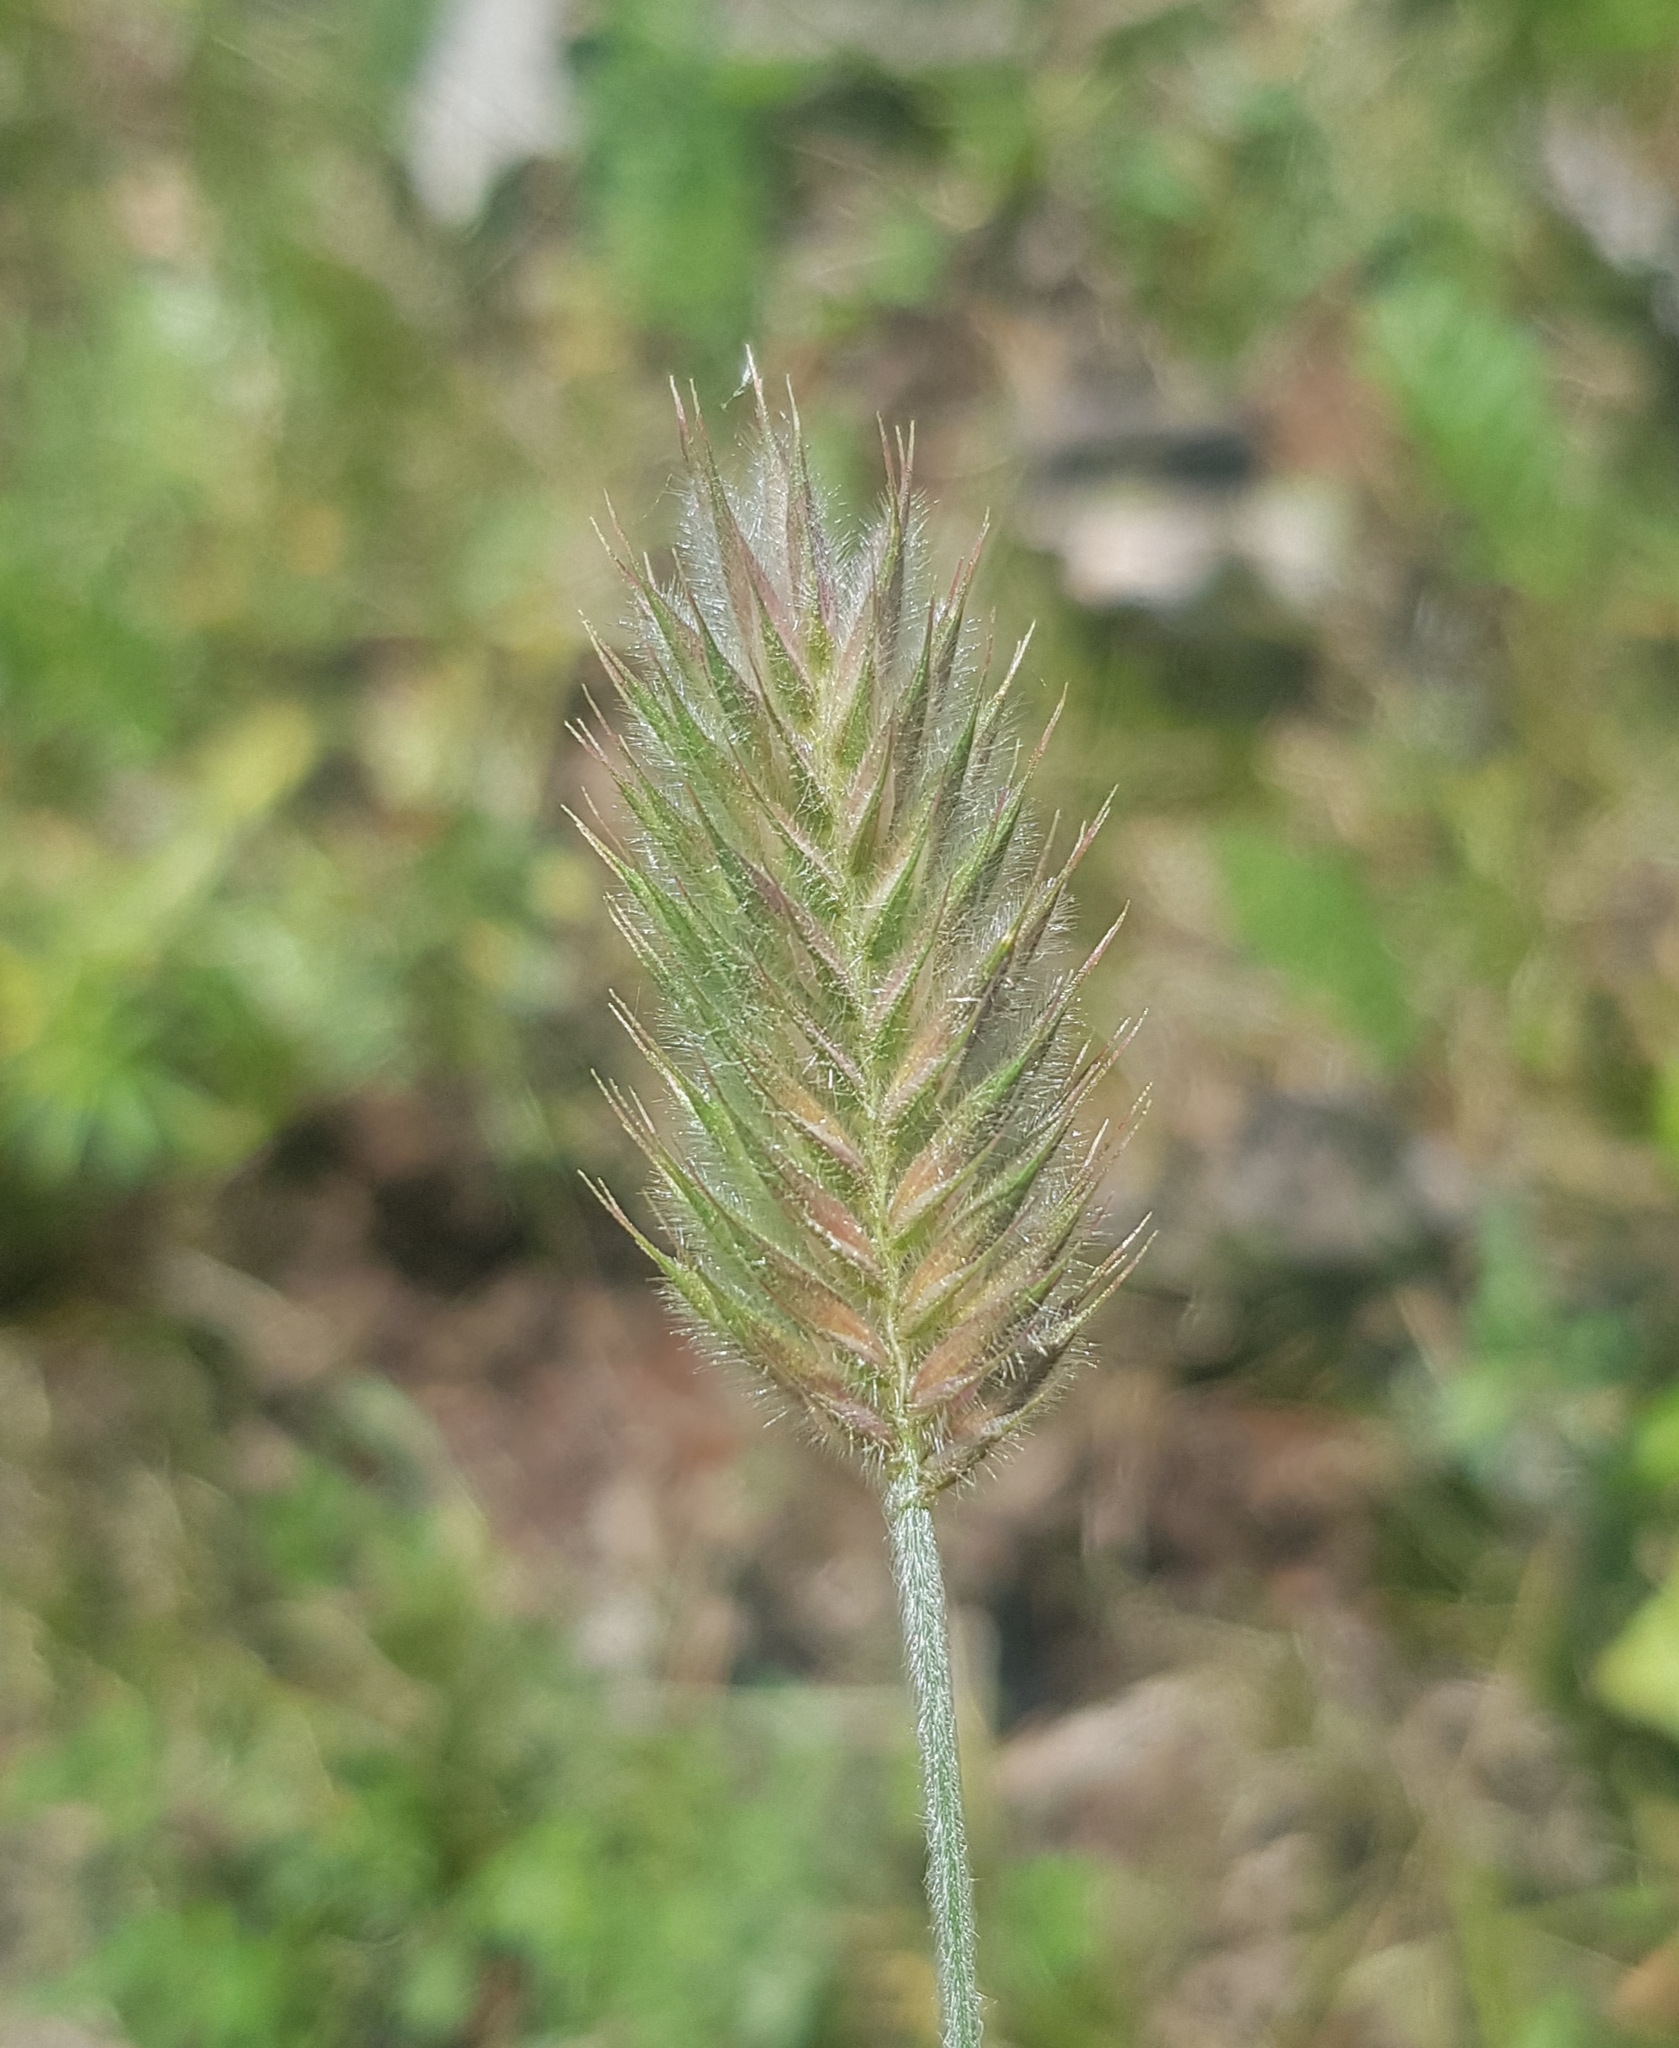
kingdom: Plantae
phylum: Tracheophyta
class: Liliopsida
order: Poales
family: Poaceae
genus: Agropyron
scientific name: Agropyron cristatum
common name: Crested wheatgrass
